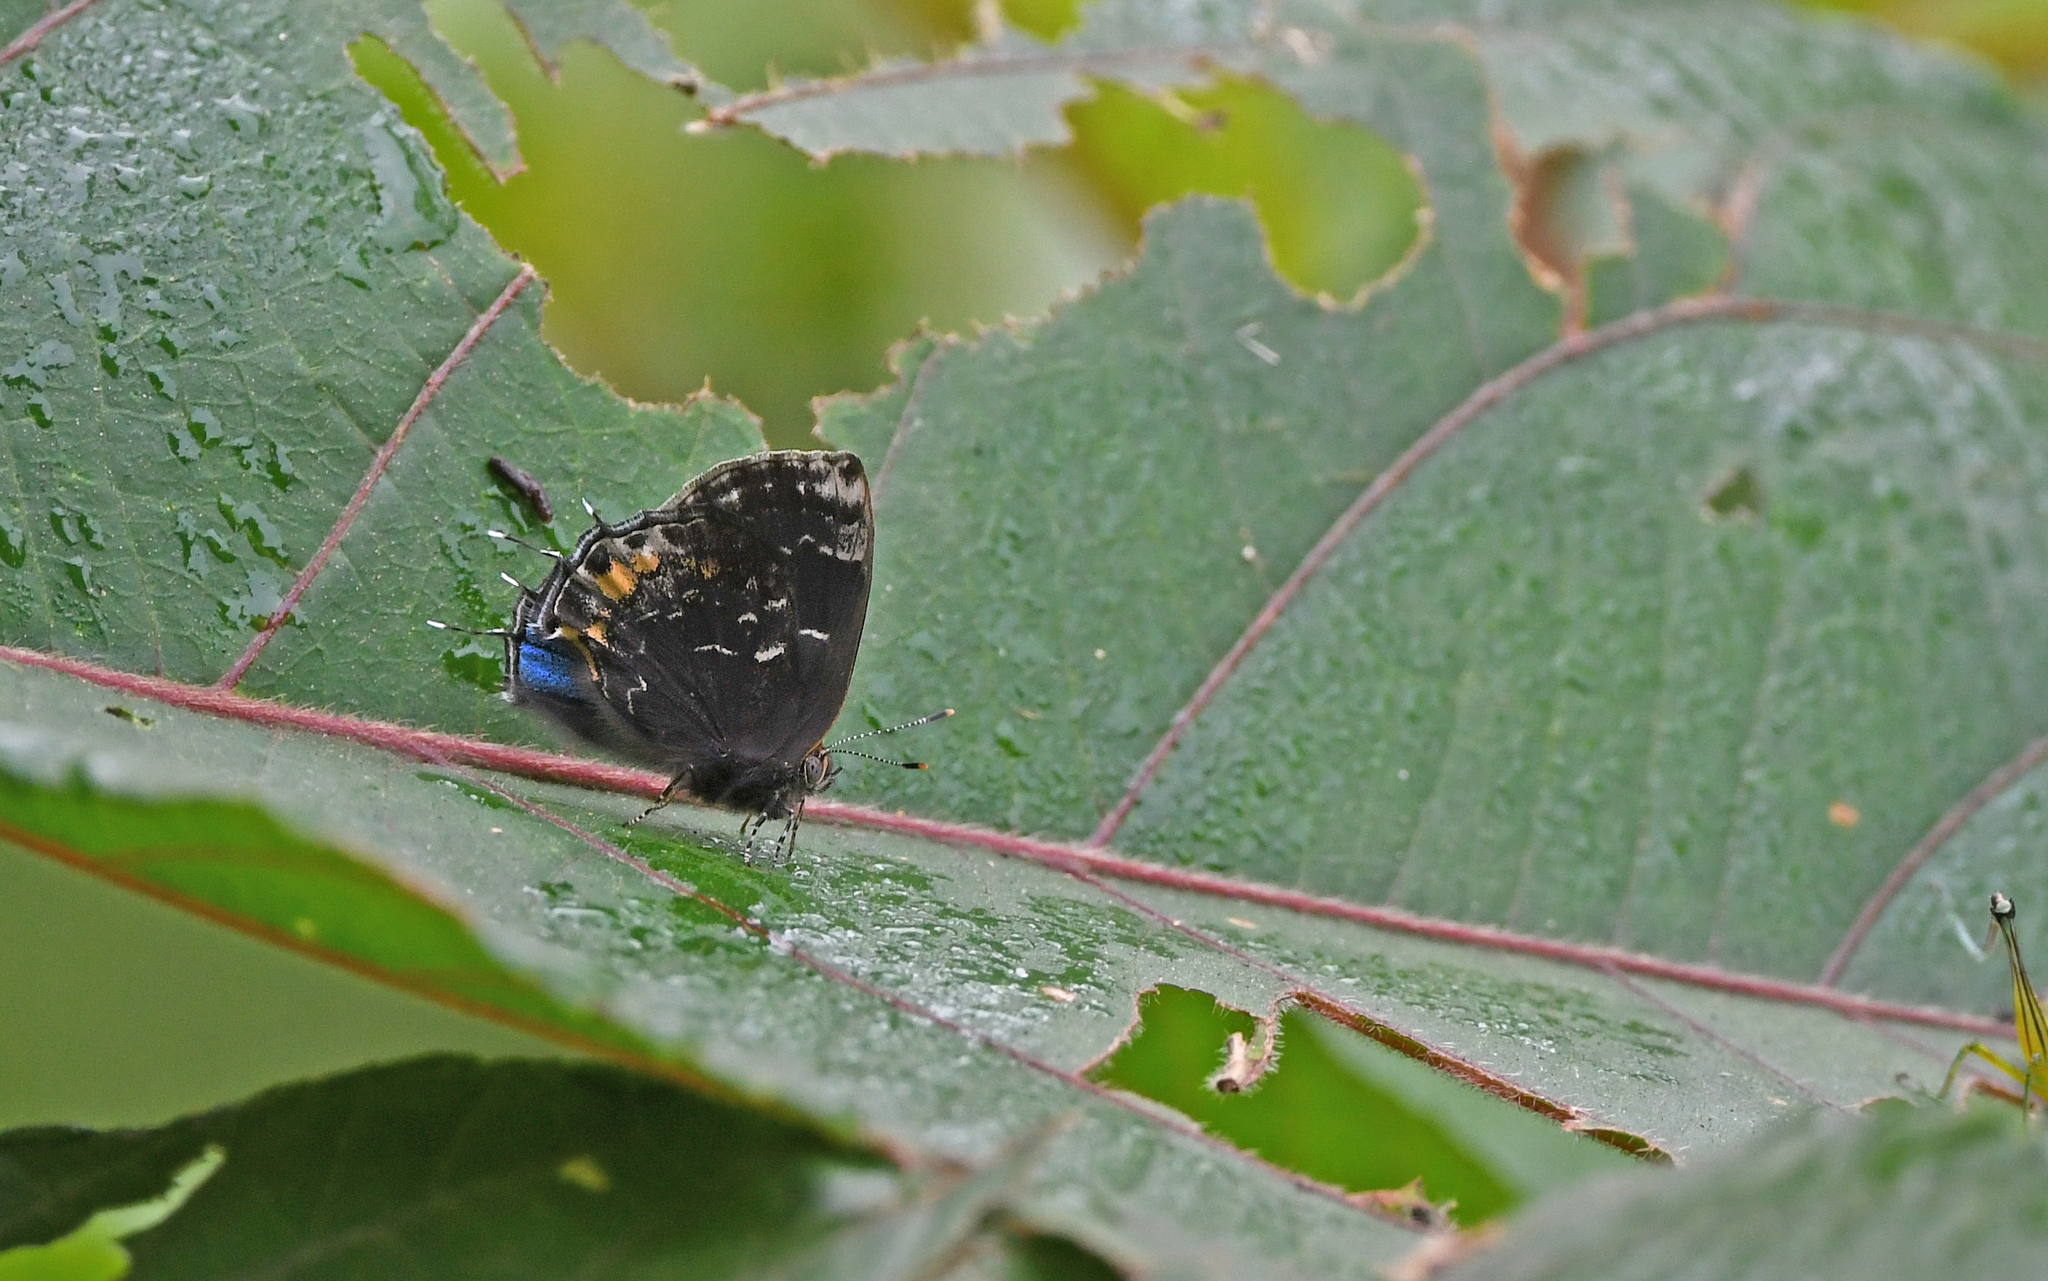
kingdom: Animalia
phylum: Arthropoda
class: Insecta
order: Lepidoptera
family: Lycaenidae
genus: Ocaria
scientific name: Ocaria ocrisia
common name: Black hairstreak
